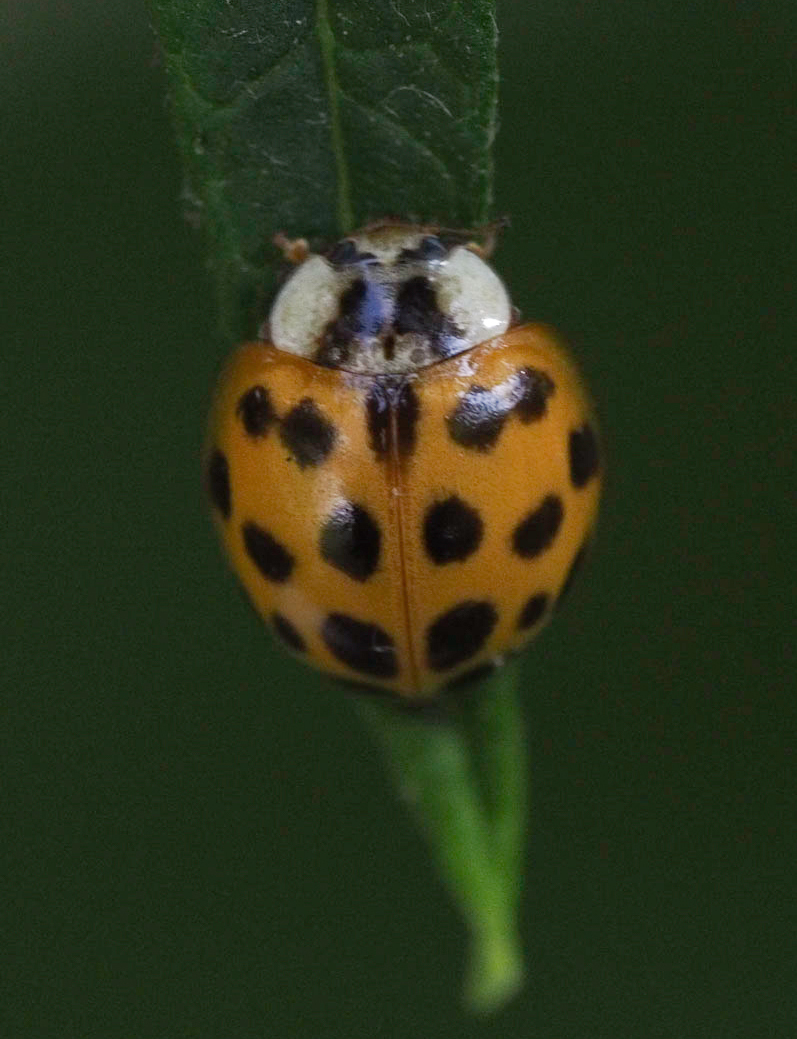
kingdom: Animalia
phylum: Arthropoda
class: Insecta
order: Coleoptera
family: Coccinellidae
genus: Harmonia
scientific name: Harmonia axyridis
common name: Harlequin ladybird
